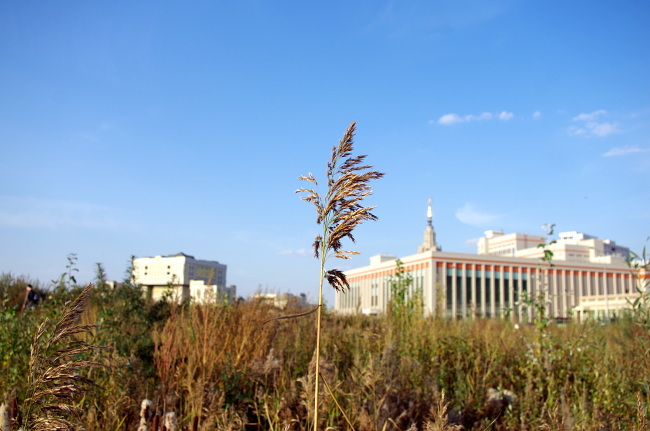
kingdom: Plantae
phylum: Tracheophyta
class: Liliopsida
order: Poales
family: Poaceae
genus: Phragmites
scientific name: Phragmites australis
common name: Common reed
